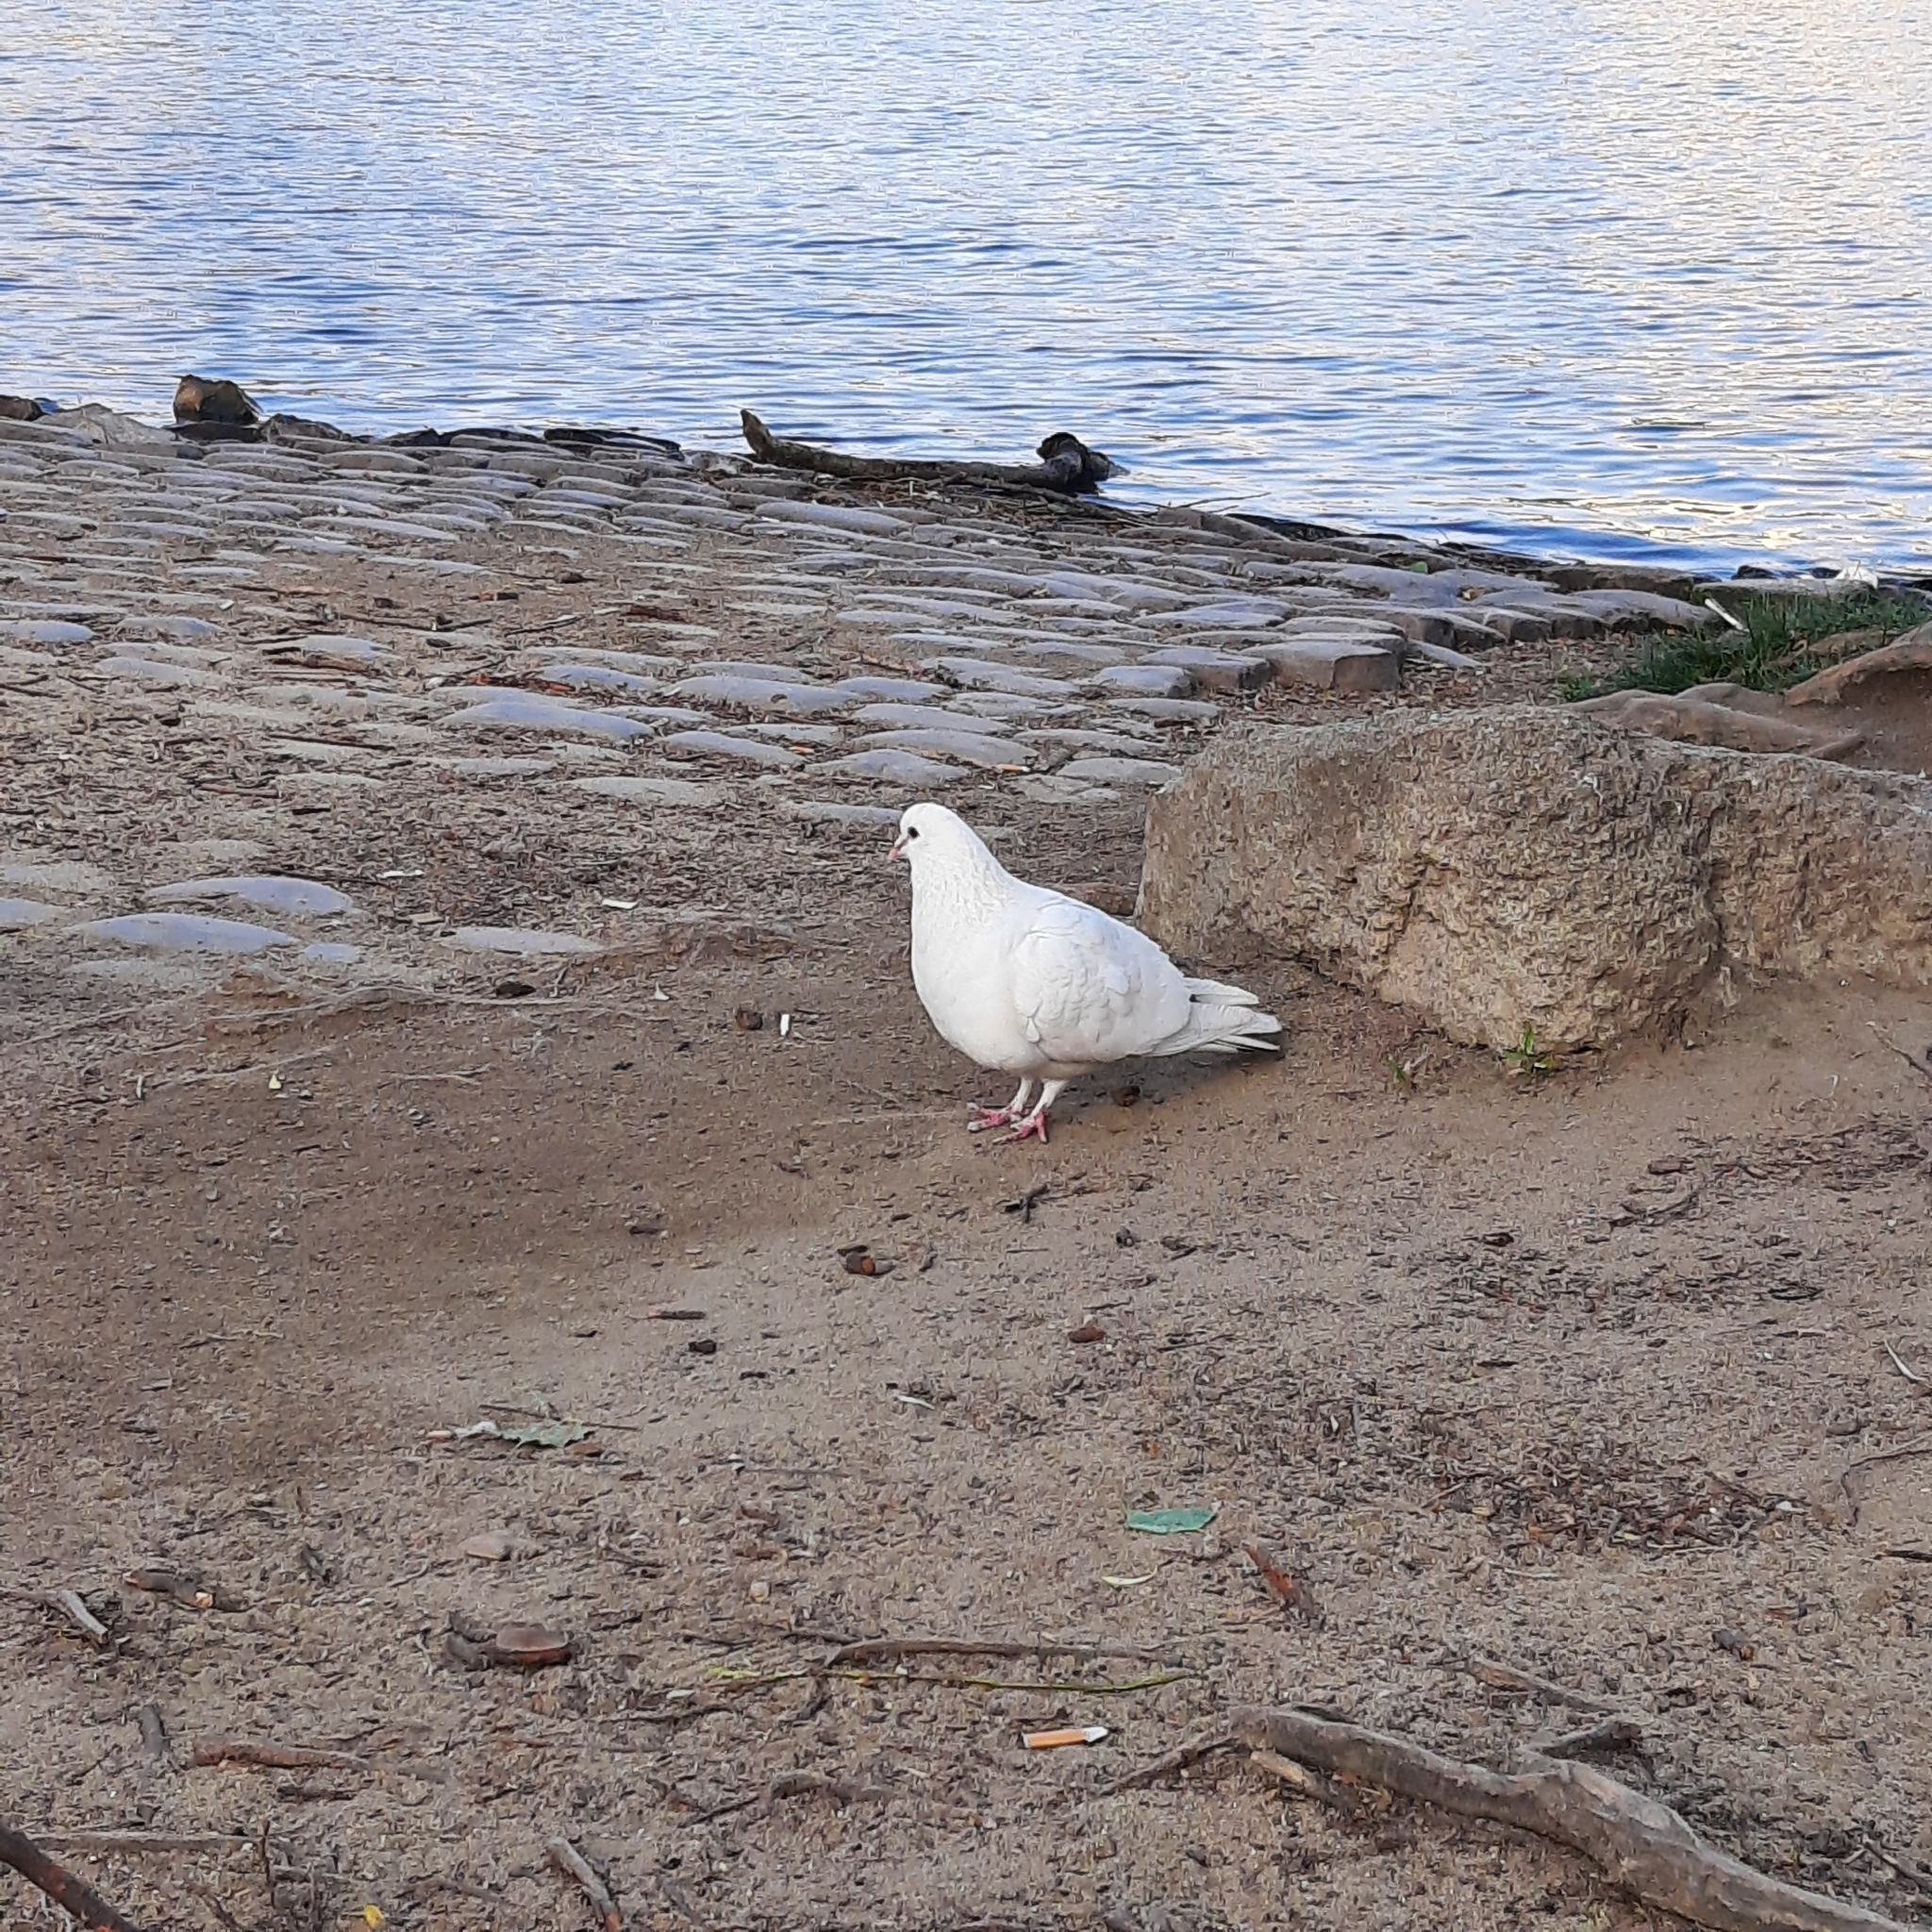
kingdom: Animalia
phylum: Chordata
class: Aves
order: Columbiformes
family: Columbidae
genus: Columba
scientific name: Columba livia
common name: Rock pigeon
